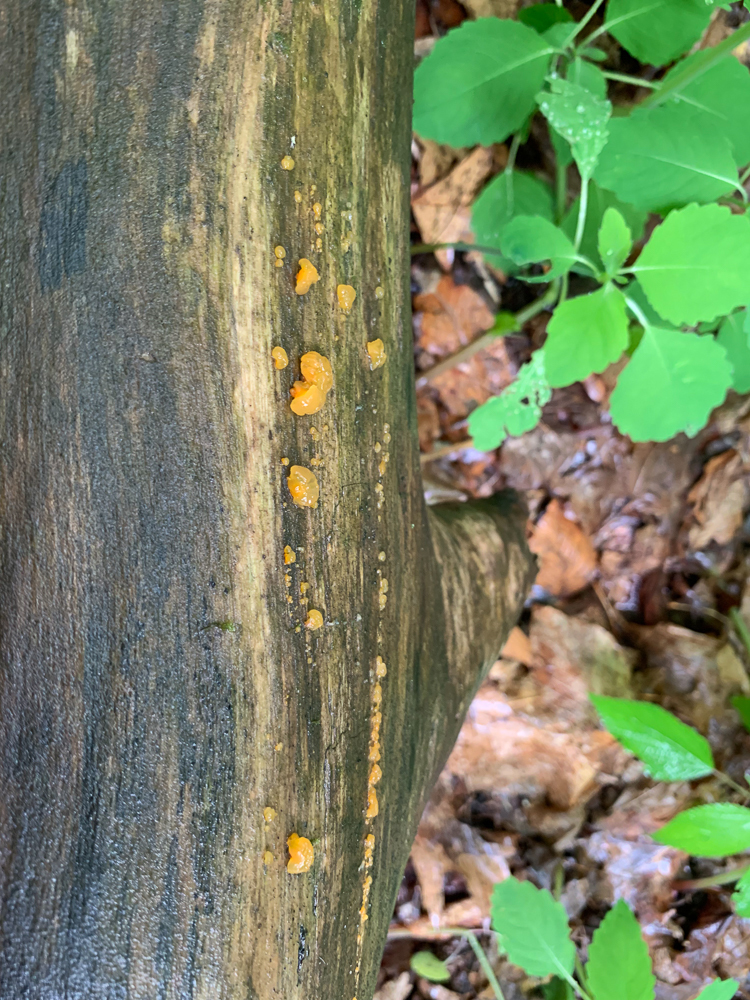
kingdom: Fungi
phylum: Basidiomycota
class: Dacrymycetes
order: Dacrymycetales
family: Dacrymycetaceae
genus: Dacrymyces
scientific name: Dacrymyces chrysospermus
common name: Orange jelly spot
